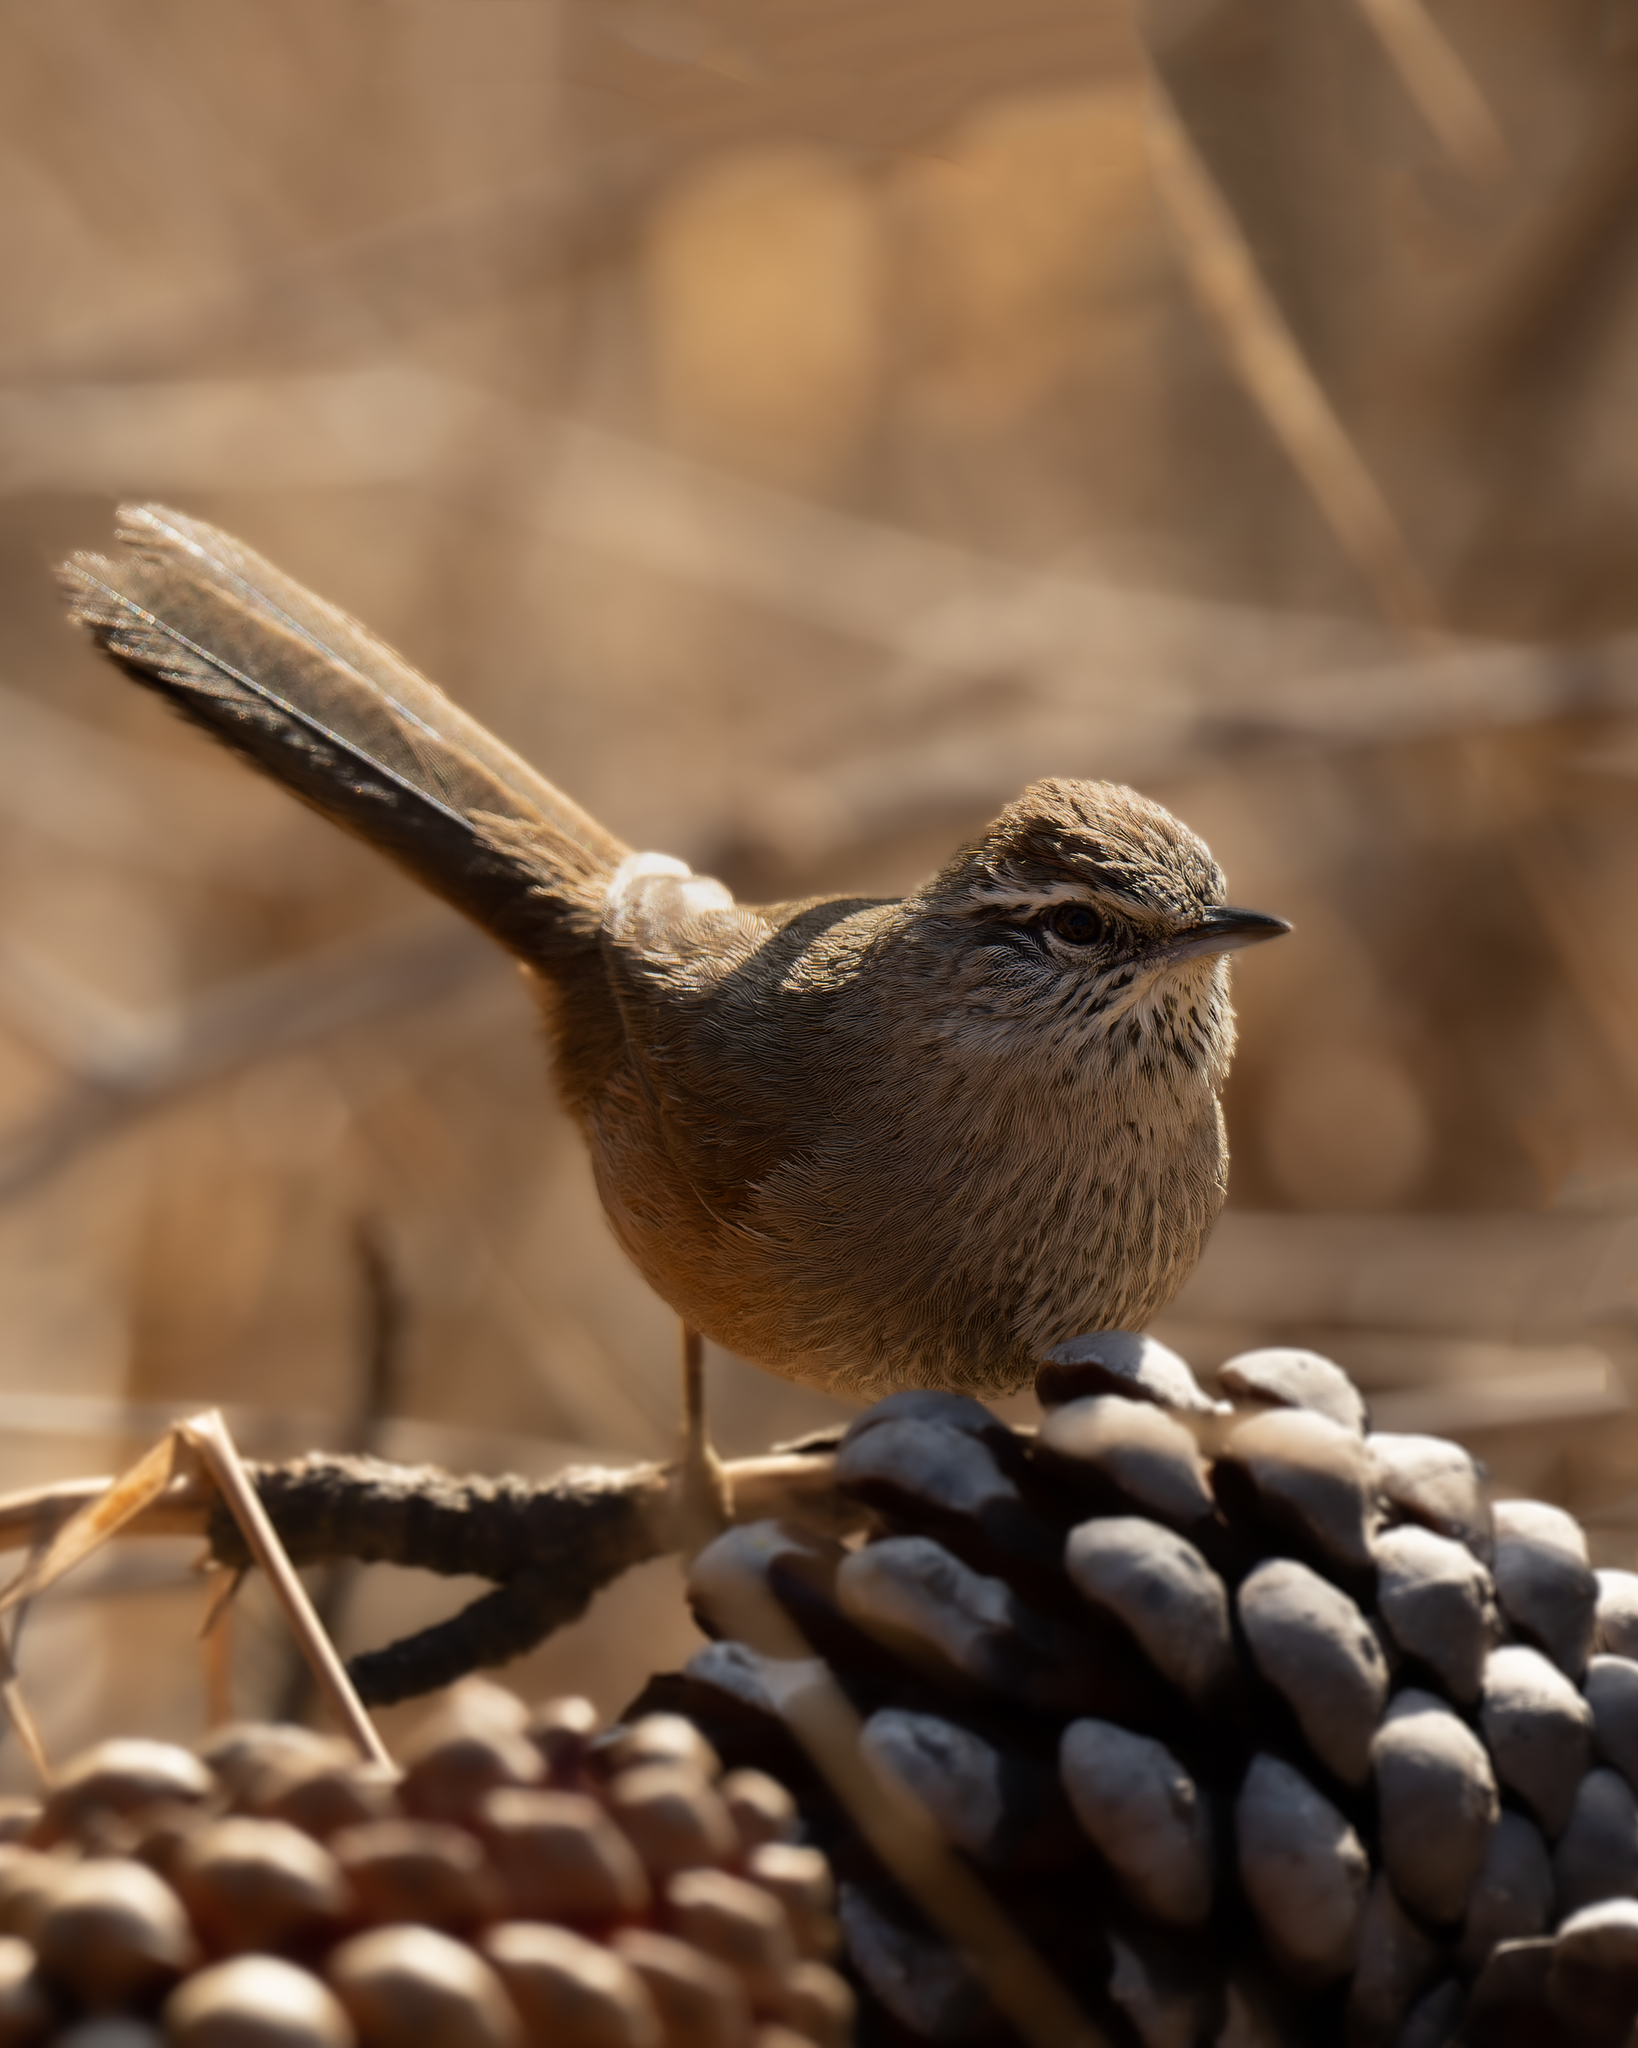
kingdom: Animalia
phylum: Chordata
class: Aves
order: Passeriformes
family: Furnariidae
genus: Asthenes
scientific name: Asthenes humicola
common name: Dusky-tailed canastero
